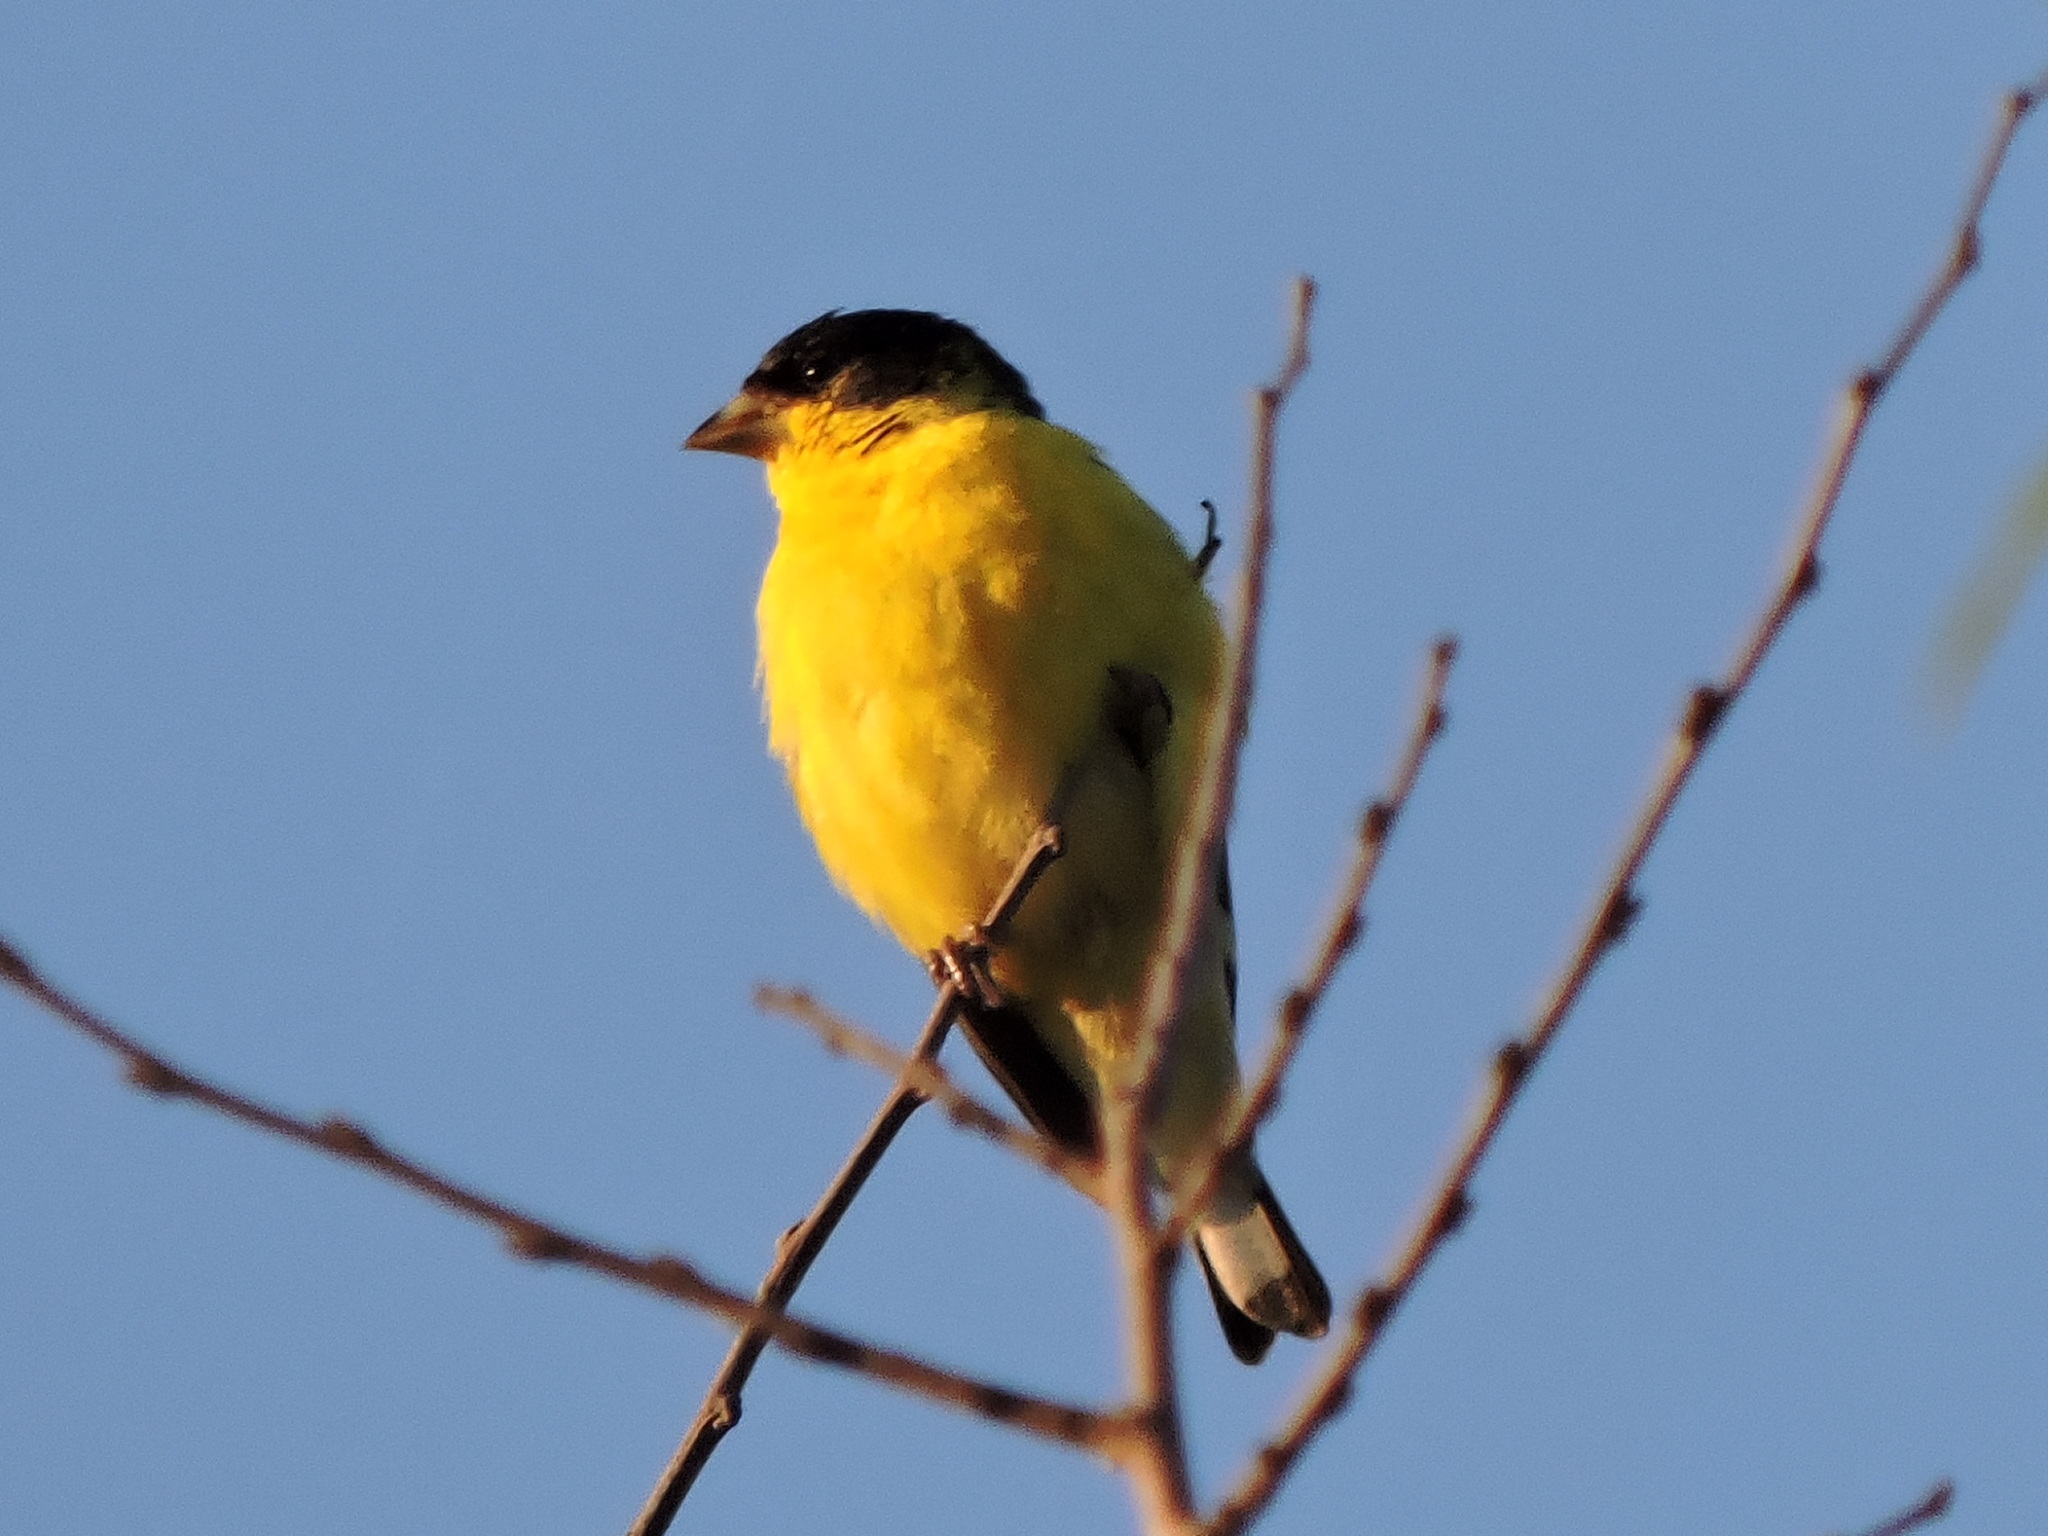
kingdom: Animalia
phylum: Chordata
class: Aves
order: Passeriformes
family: Fringillidae
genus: Spinus
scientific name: Spinus psaltria
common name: Lesser goldfinch
